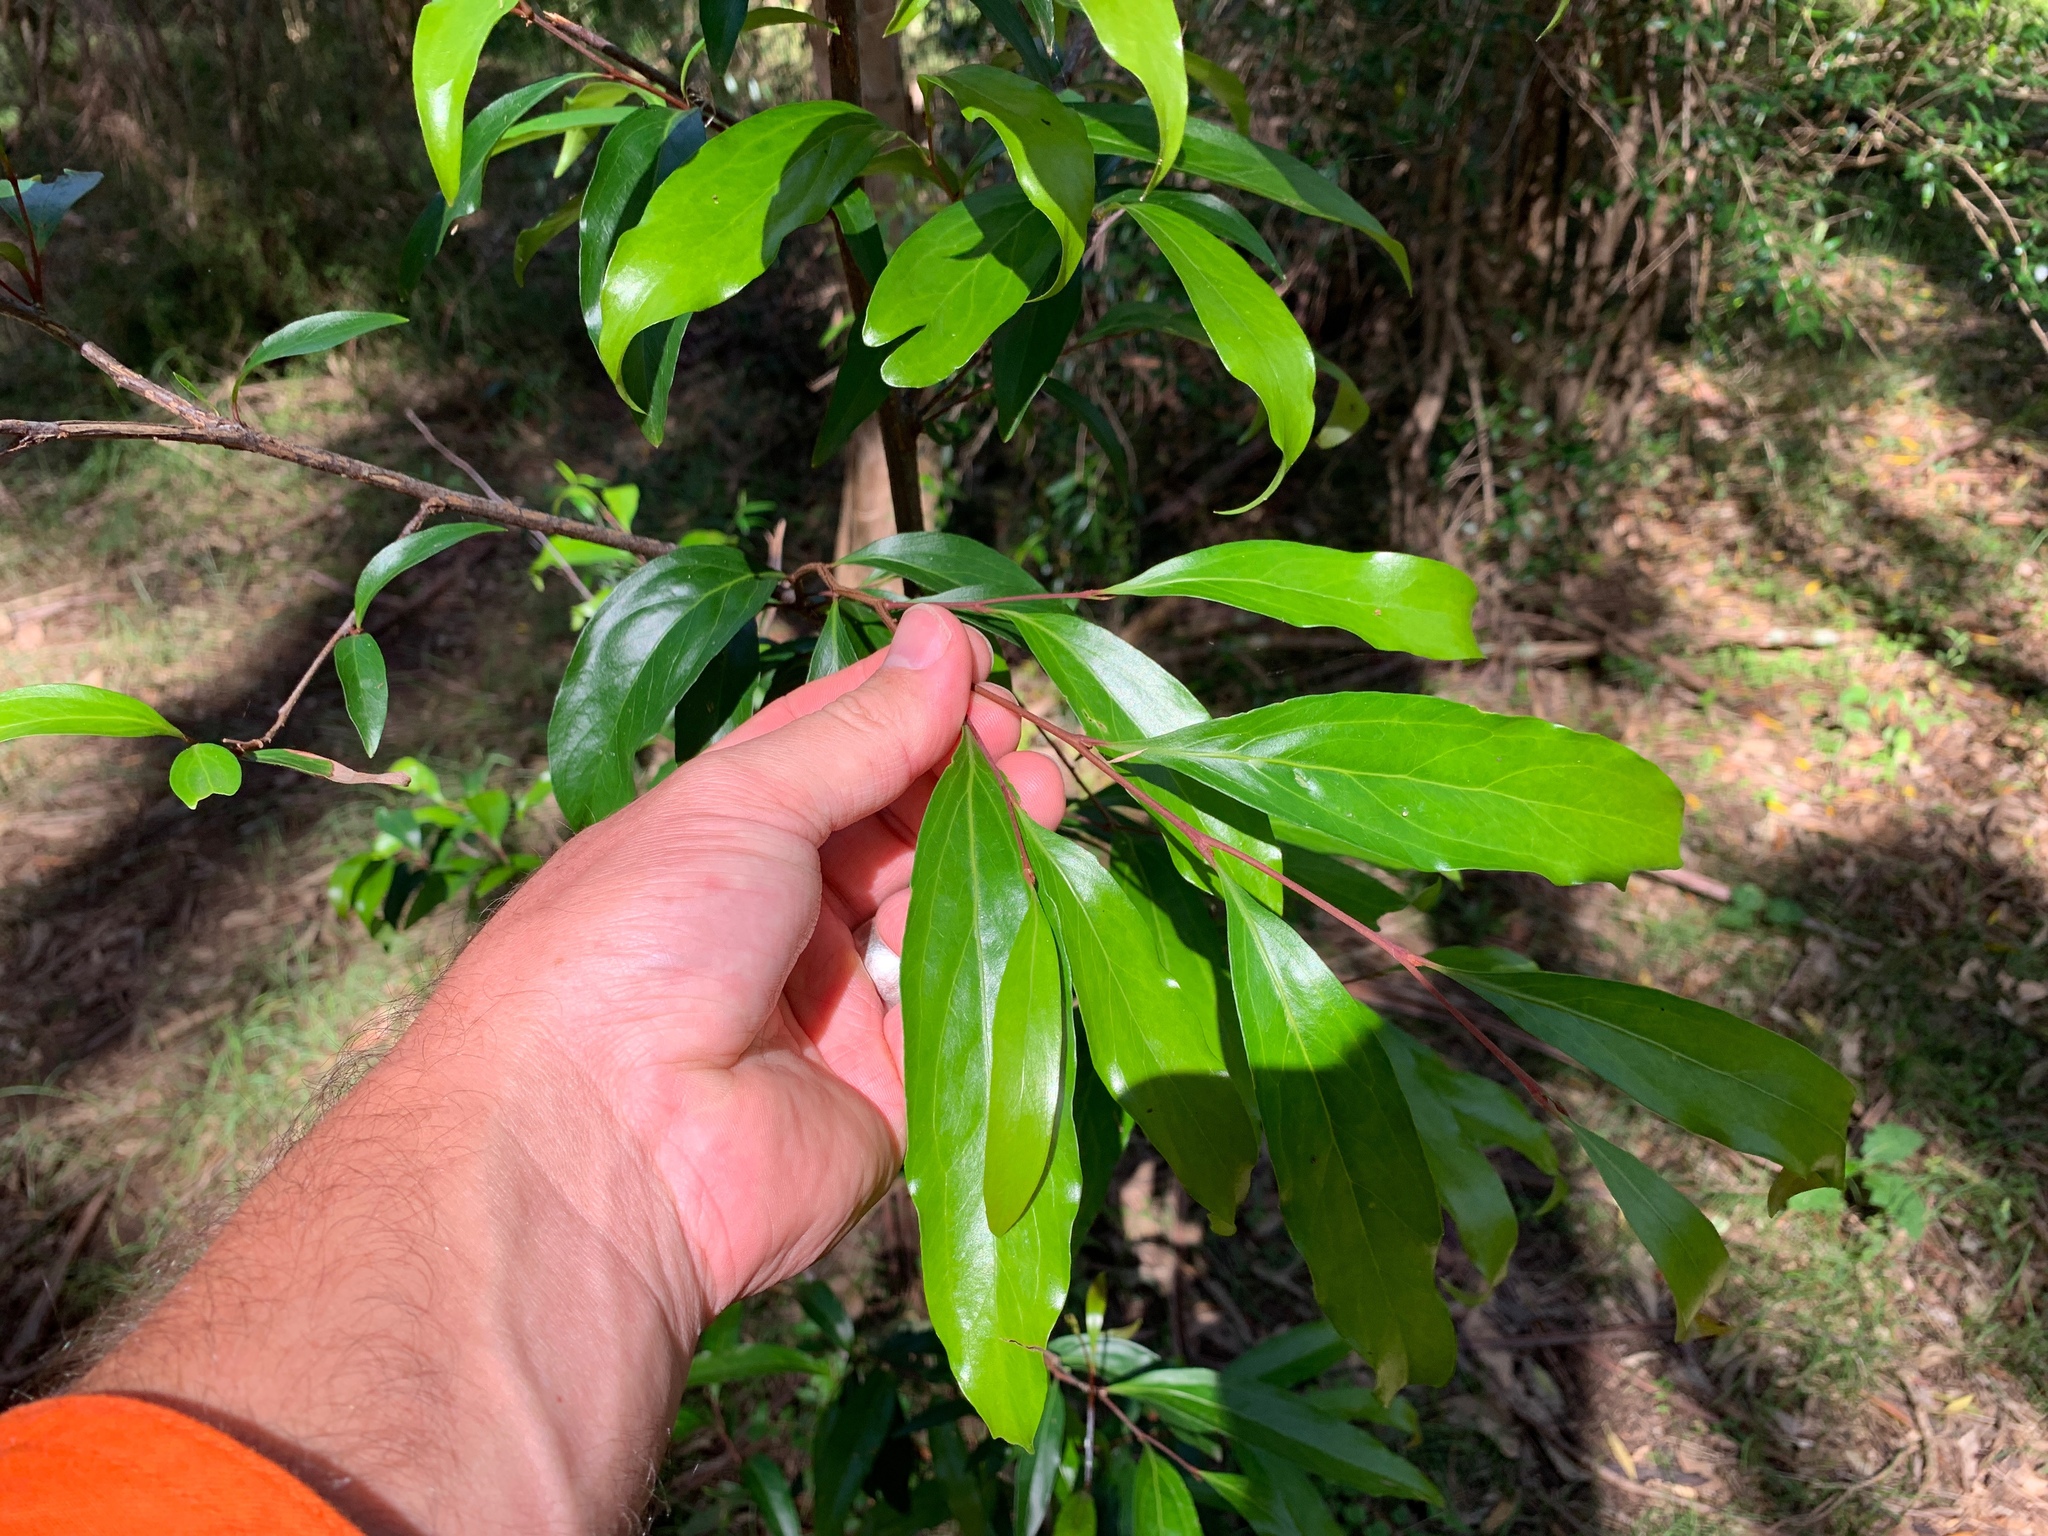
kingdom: Plantae
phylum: Tracheophyta
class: Magnoliopsida
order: Proteales
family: Proteaceae
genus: Stenocarpus
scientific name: Stenocarpus salignus
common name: Red silky-oak
